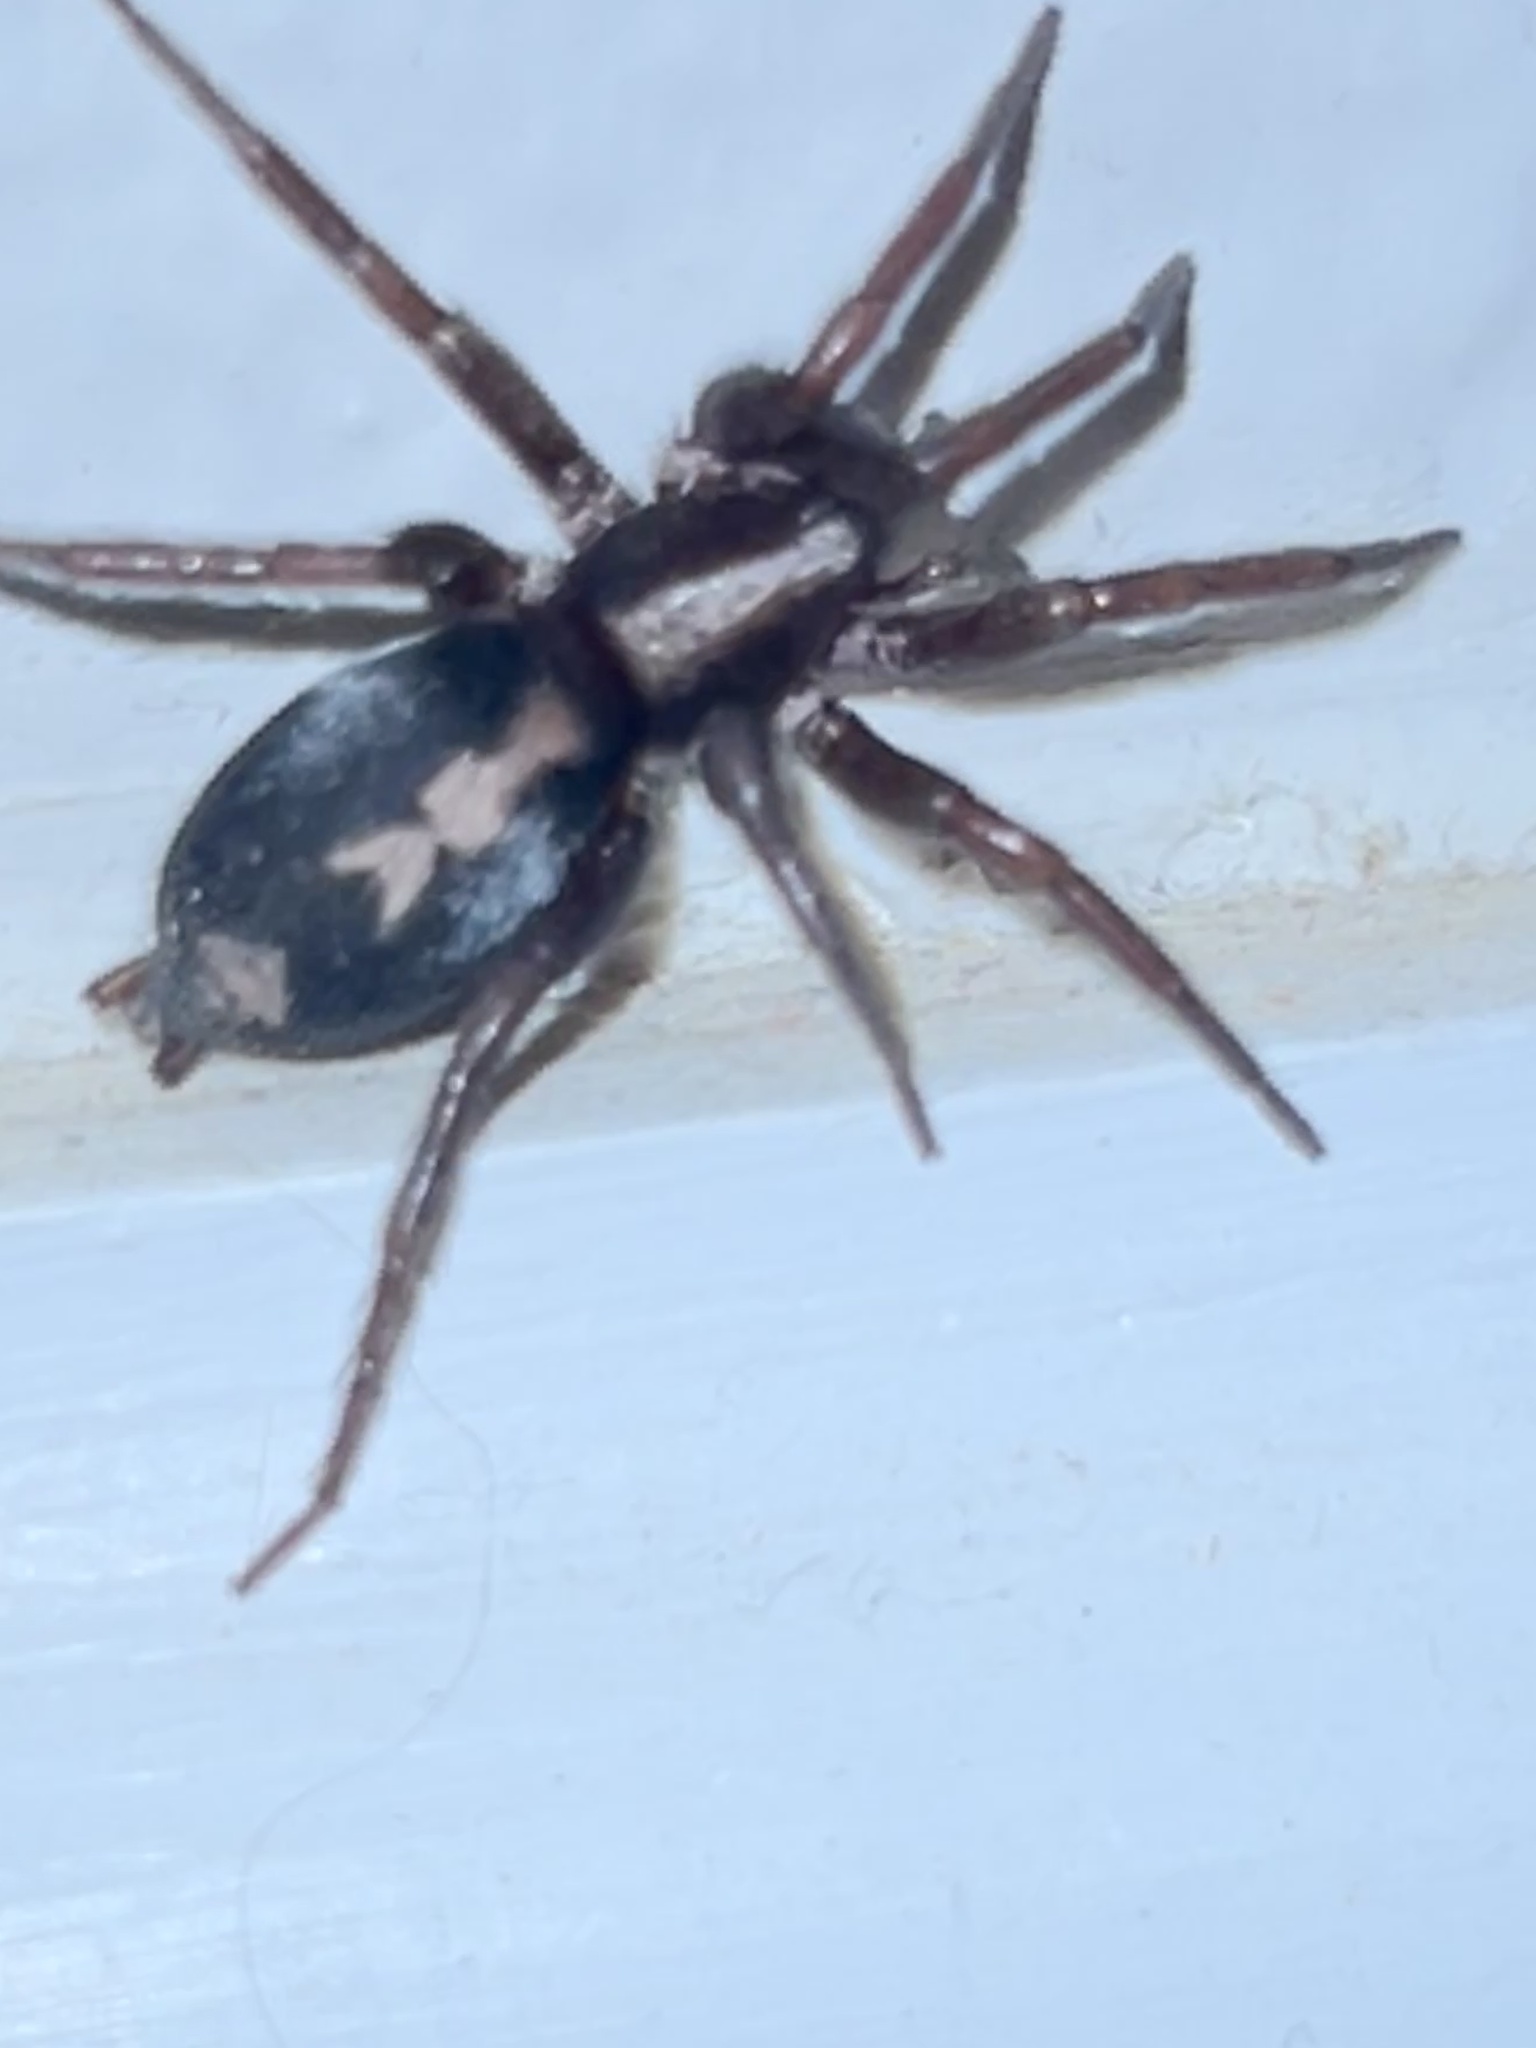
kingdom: Animalia
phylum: Arthropoda
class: Arachnida
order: Araneae
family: Gnaphosidae
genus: Herpyllus
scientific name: Herpyllus propinquus
